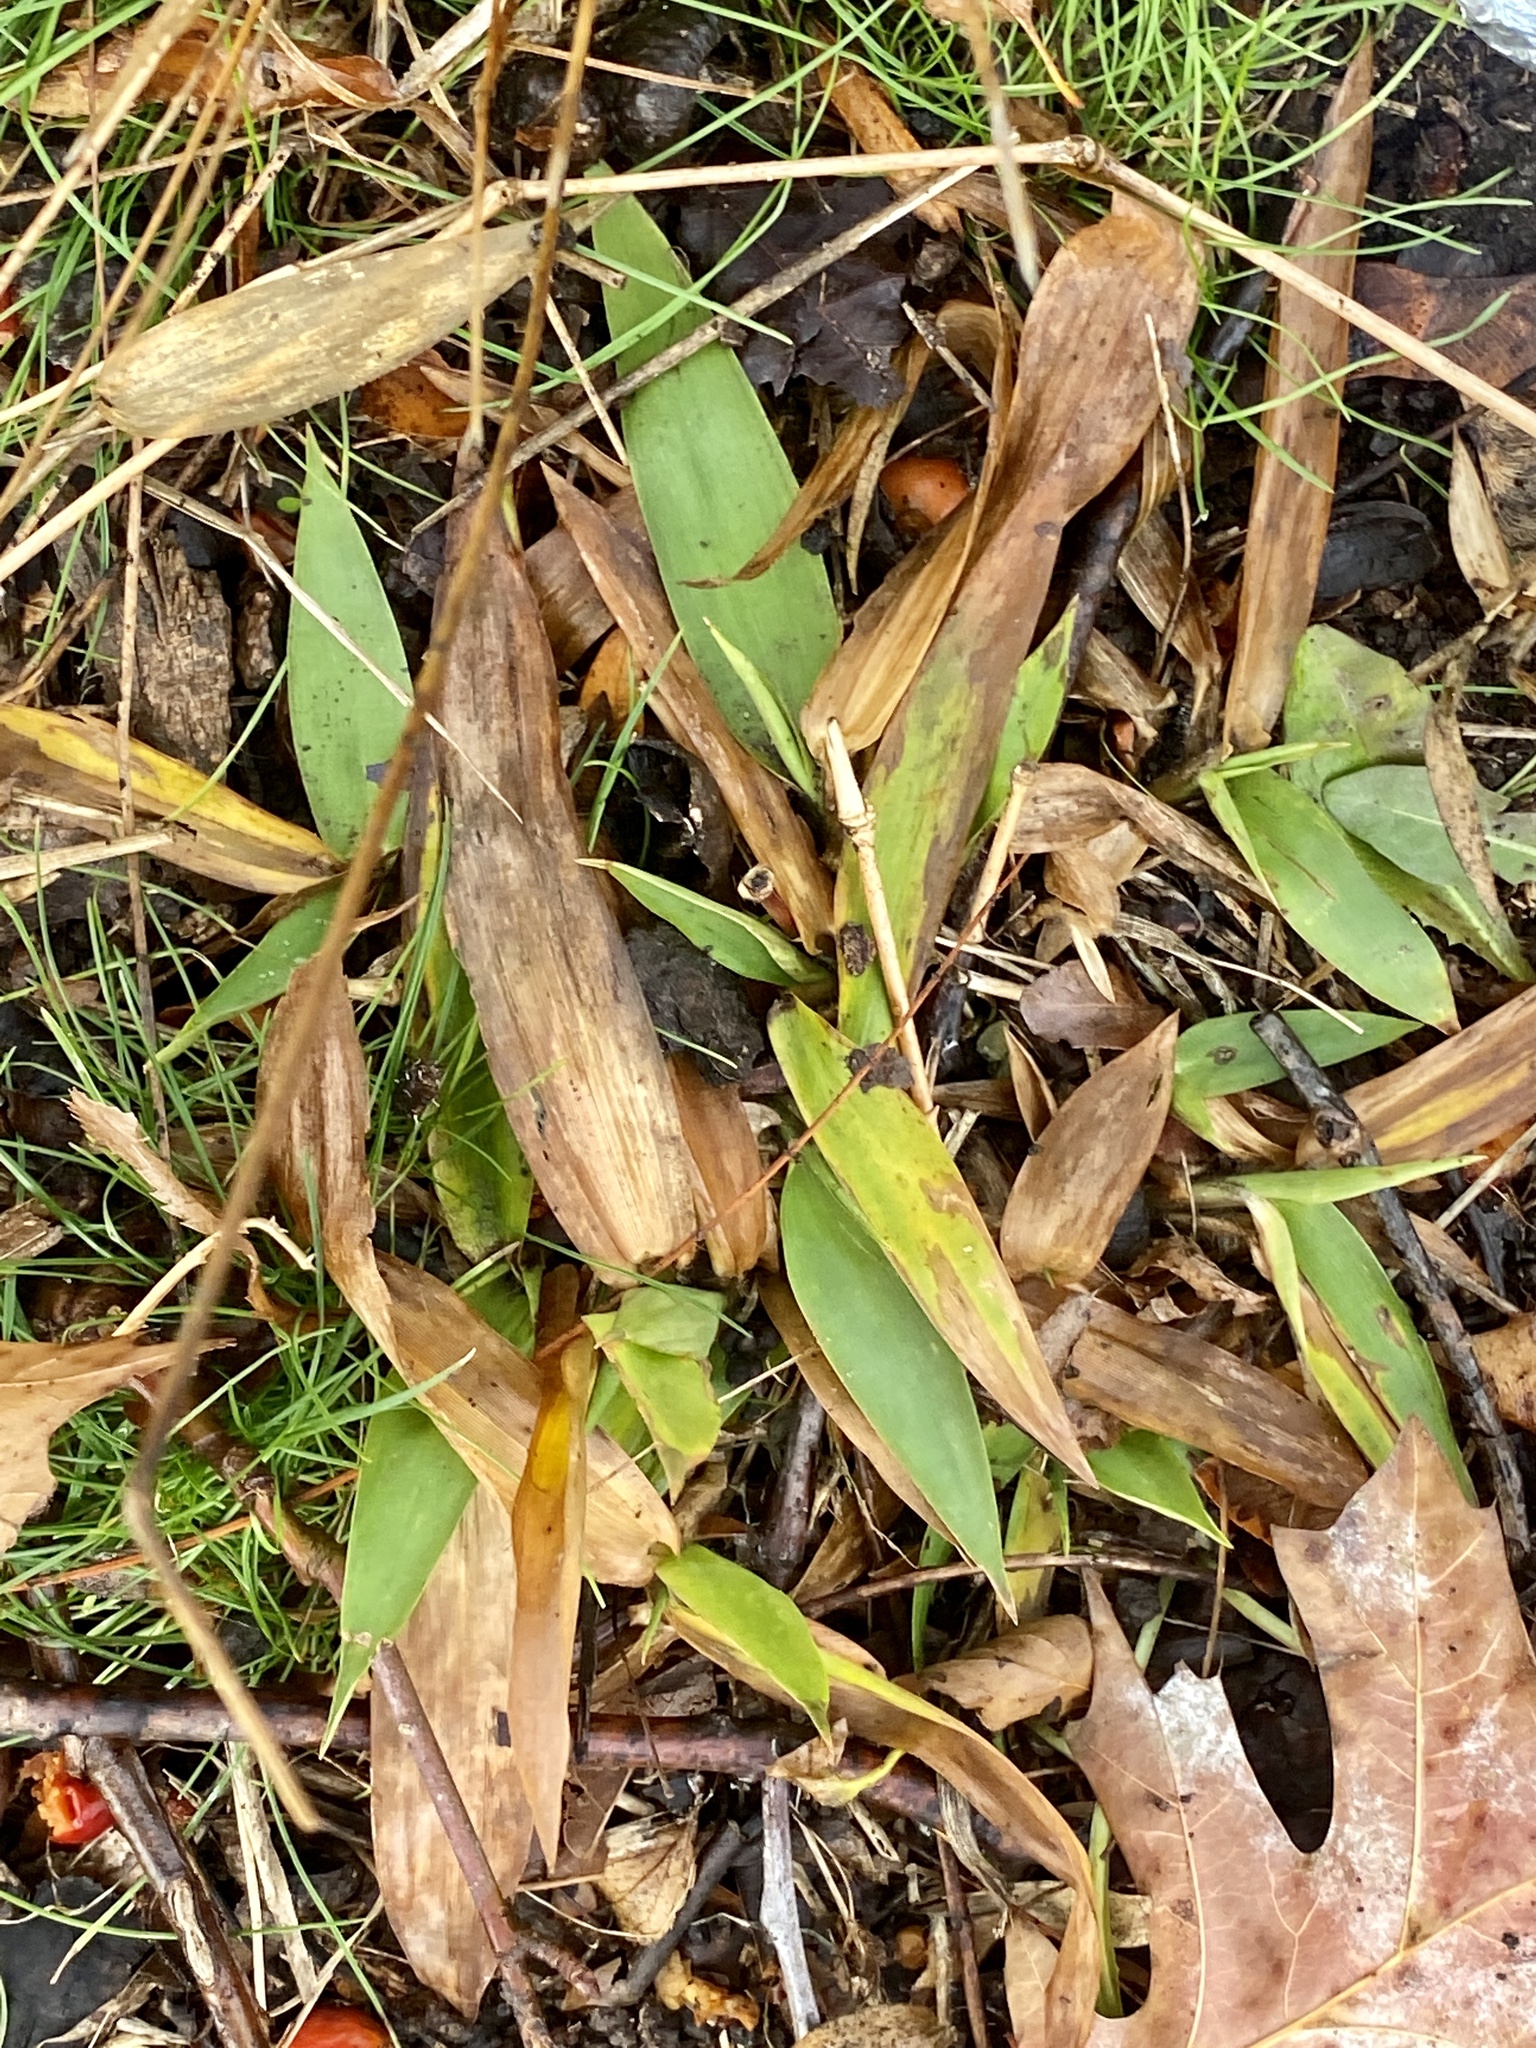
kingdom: Plantae
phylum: Tracheophyta
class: Liliopsida
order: Poales
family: Poaceae
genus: Dichanthelium
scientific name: Dichanthelium clandestinum
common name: Deer-tongue grass
